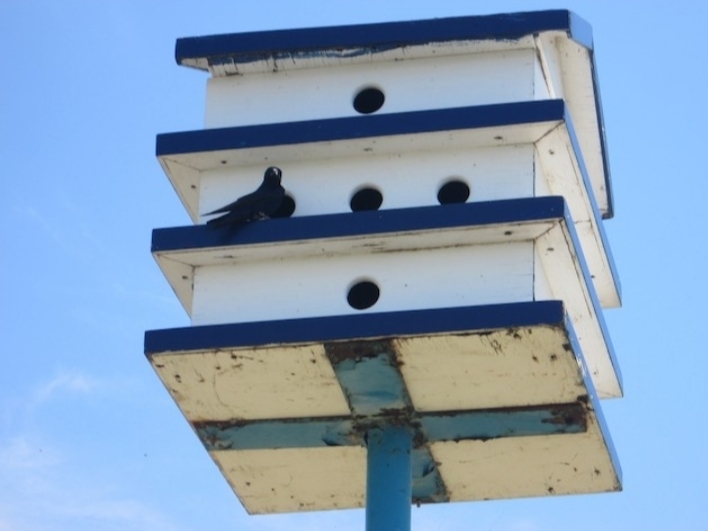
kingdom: Animalia
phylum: Chordata
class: Aves
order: Passeriformes
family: Hirundinidae
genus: Progne
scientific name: Progne subis
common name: Purple martin
